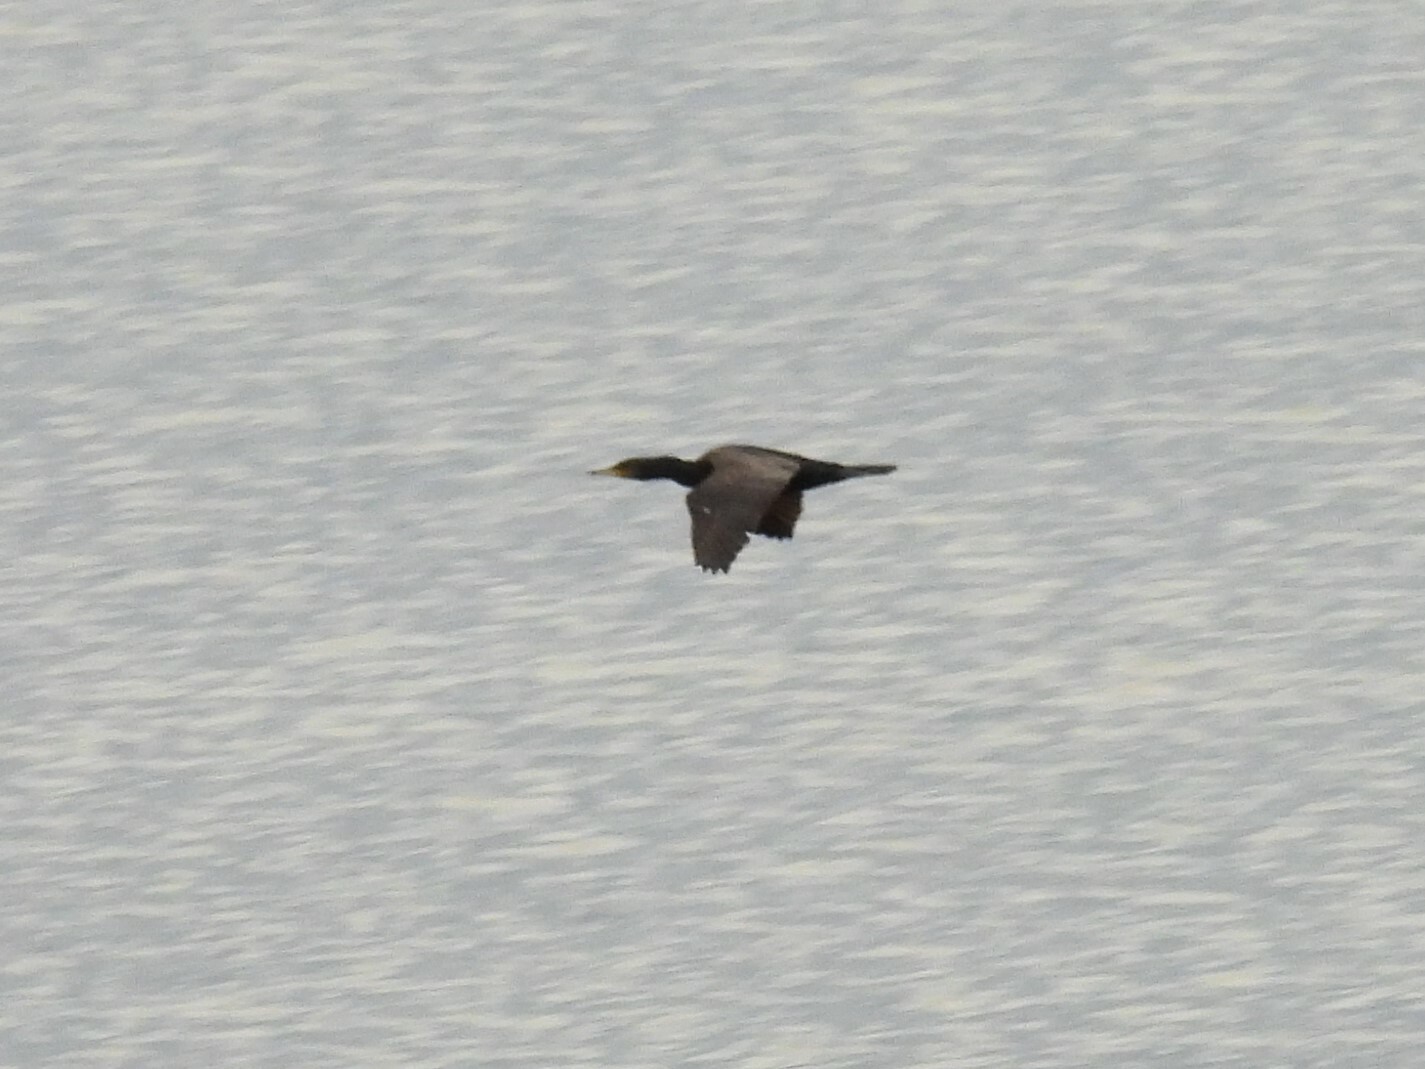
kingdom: Animalia
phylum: Chordata
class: Aves
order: Suliformes
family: Phalacrocoracidae
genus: Phalacrocorax
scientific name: Phalacrocorax carbo
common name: Great cormorant
